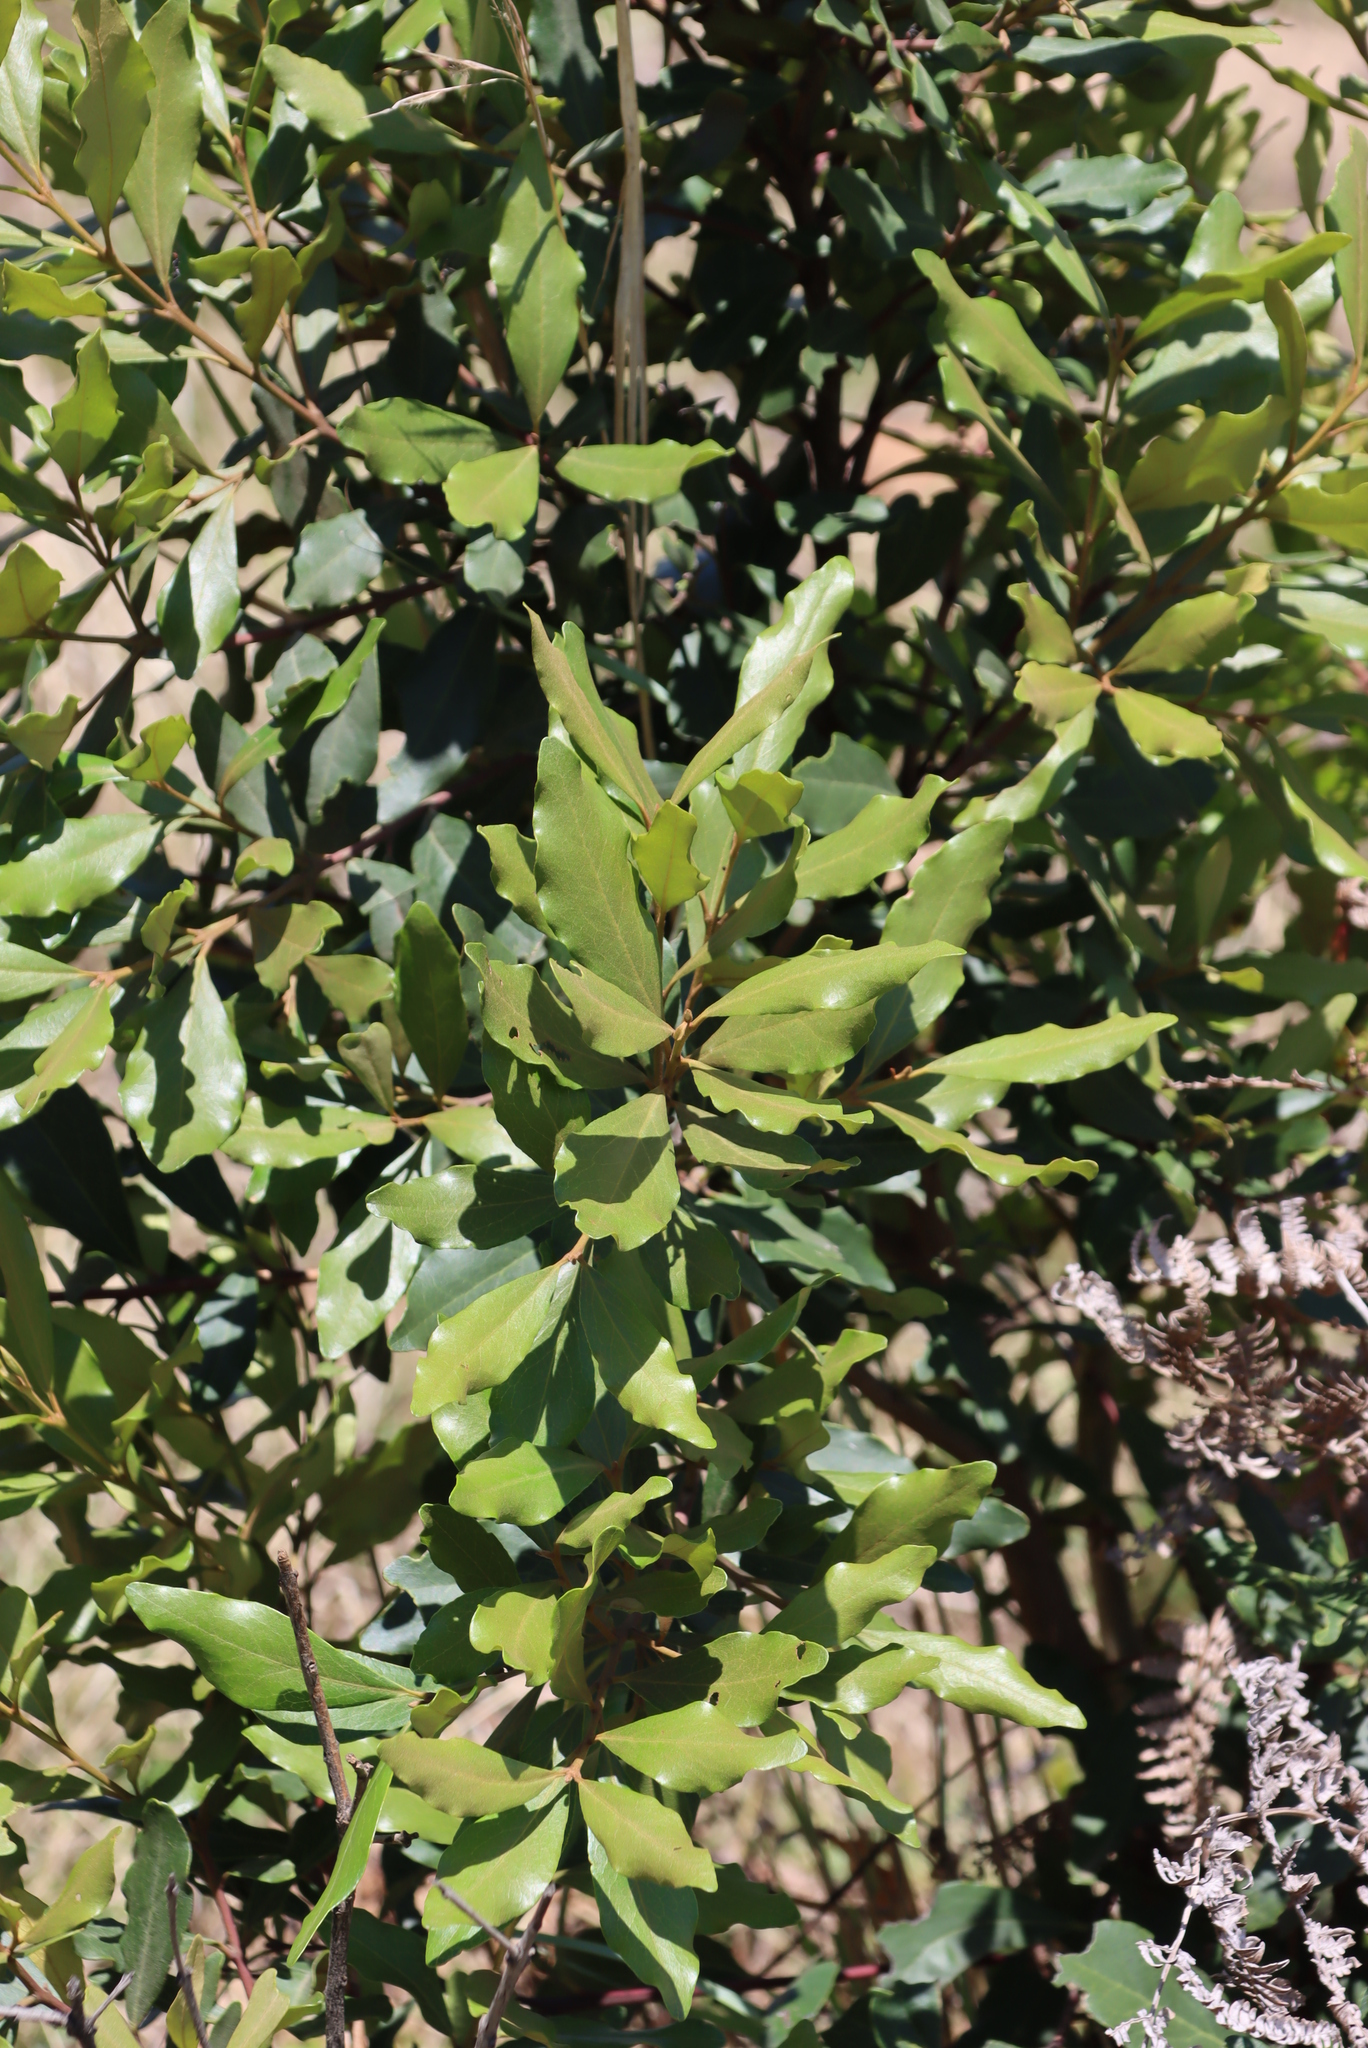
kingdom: Plantae
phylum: Tracheophyta
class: Magnoliopsida
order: Ericales
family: Ebenaceae
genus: Euclea
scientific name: Euclea crispa
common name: Blue guarri
